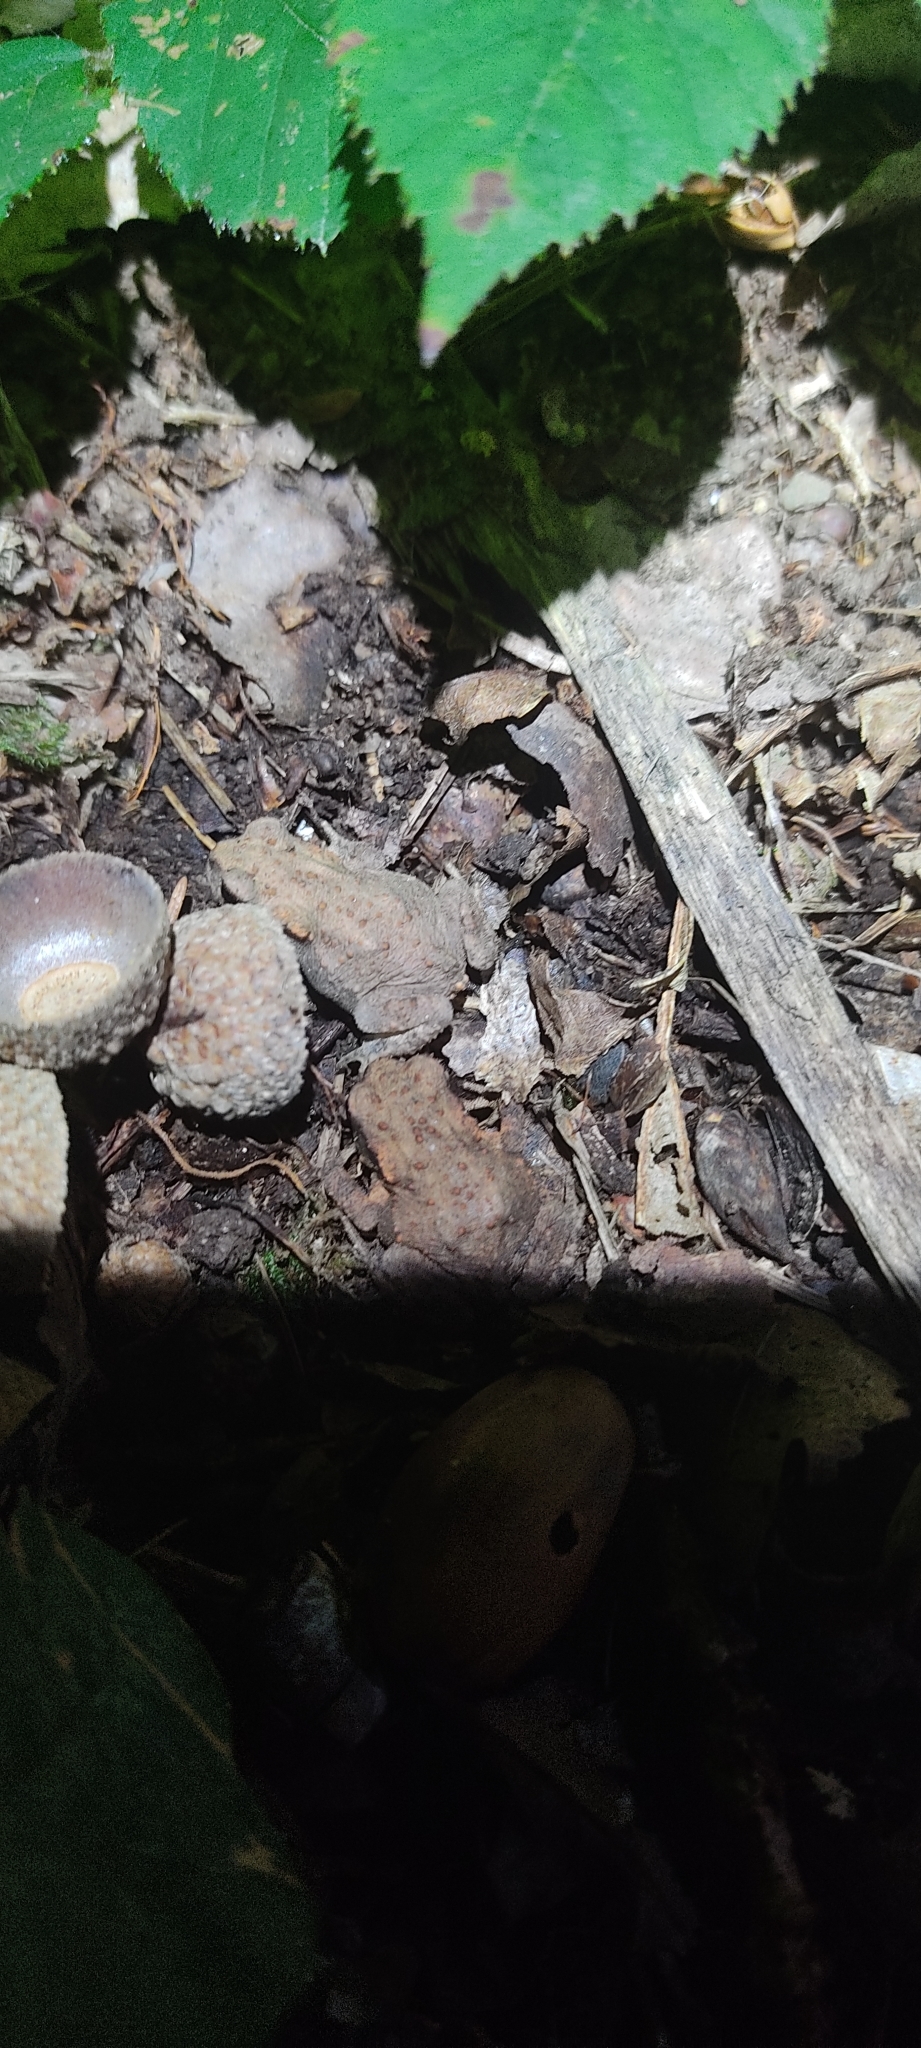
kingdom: Animalia
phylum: Chordata
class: Amphibia
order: Anura
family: Bufonidae
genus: Bufo
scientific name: Bufo spinosus
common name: Western common toad
